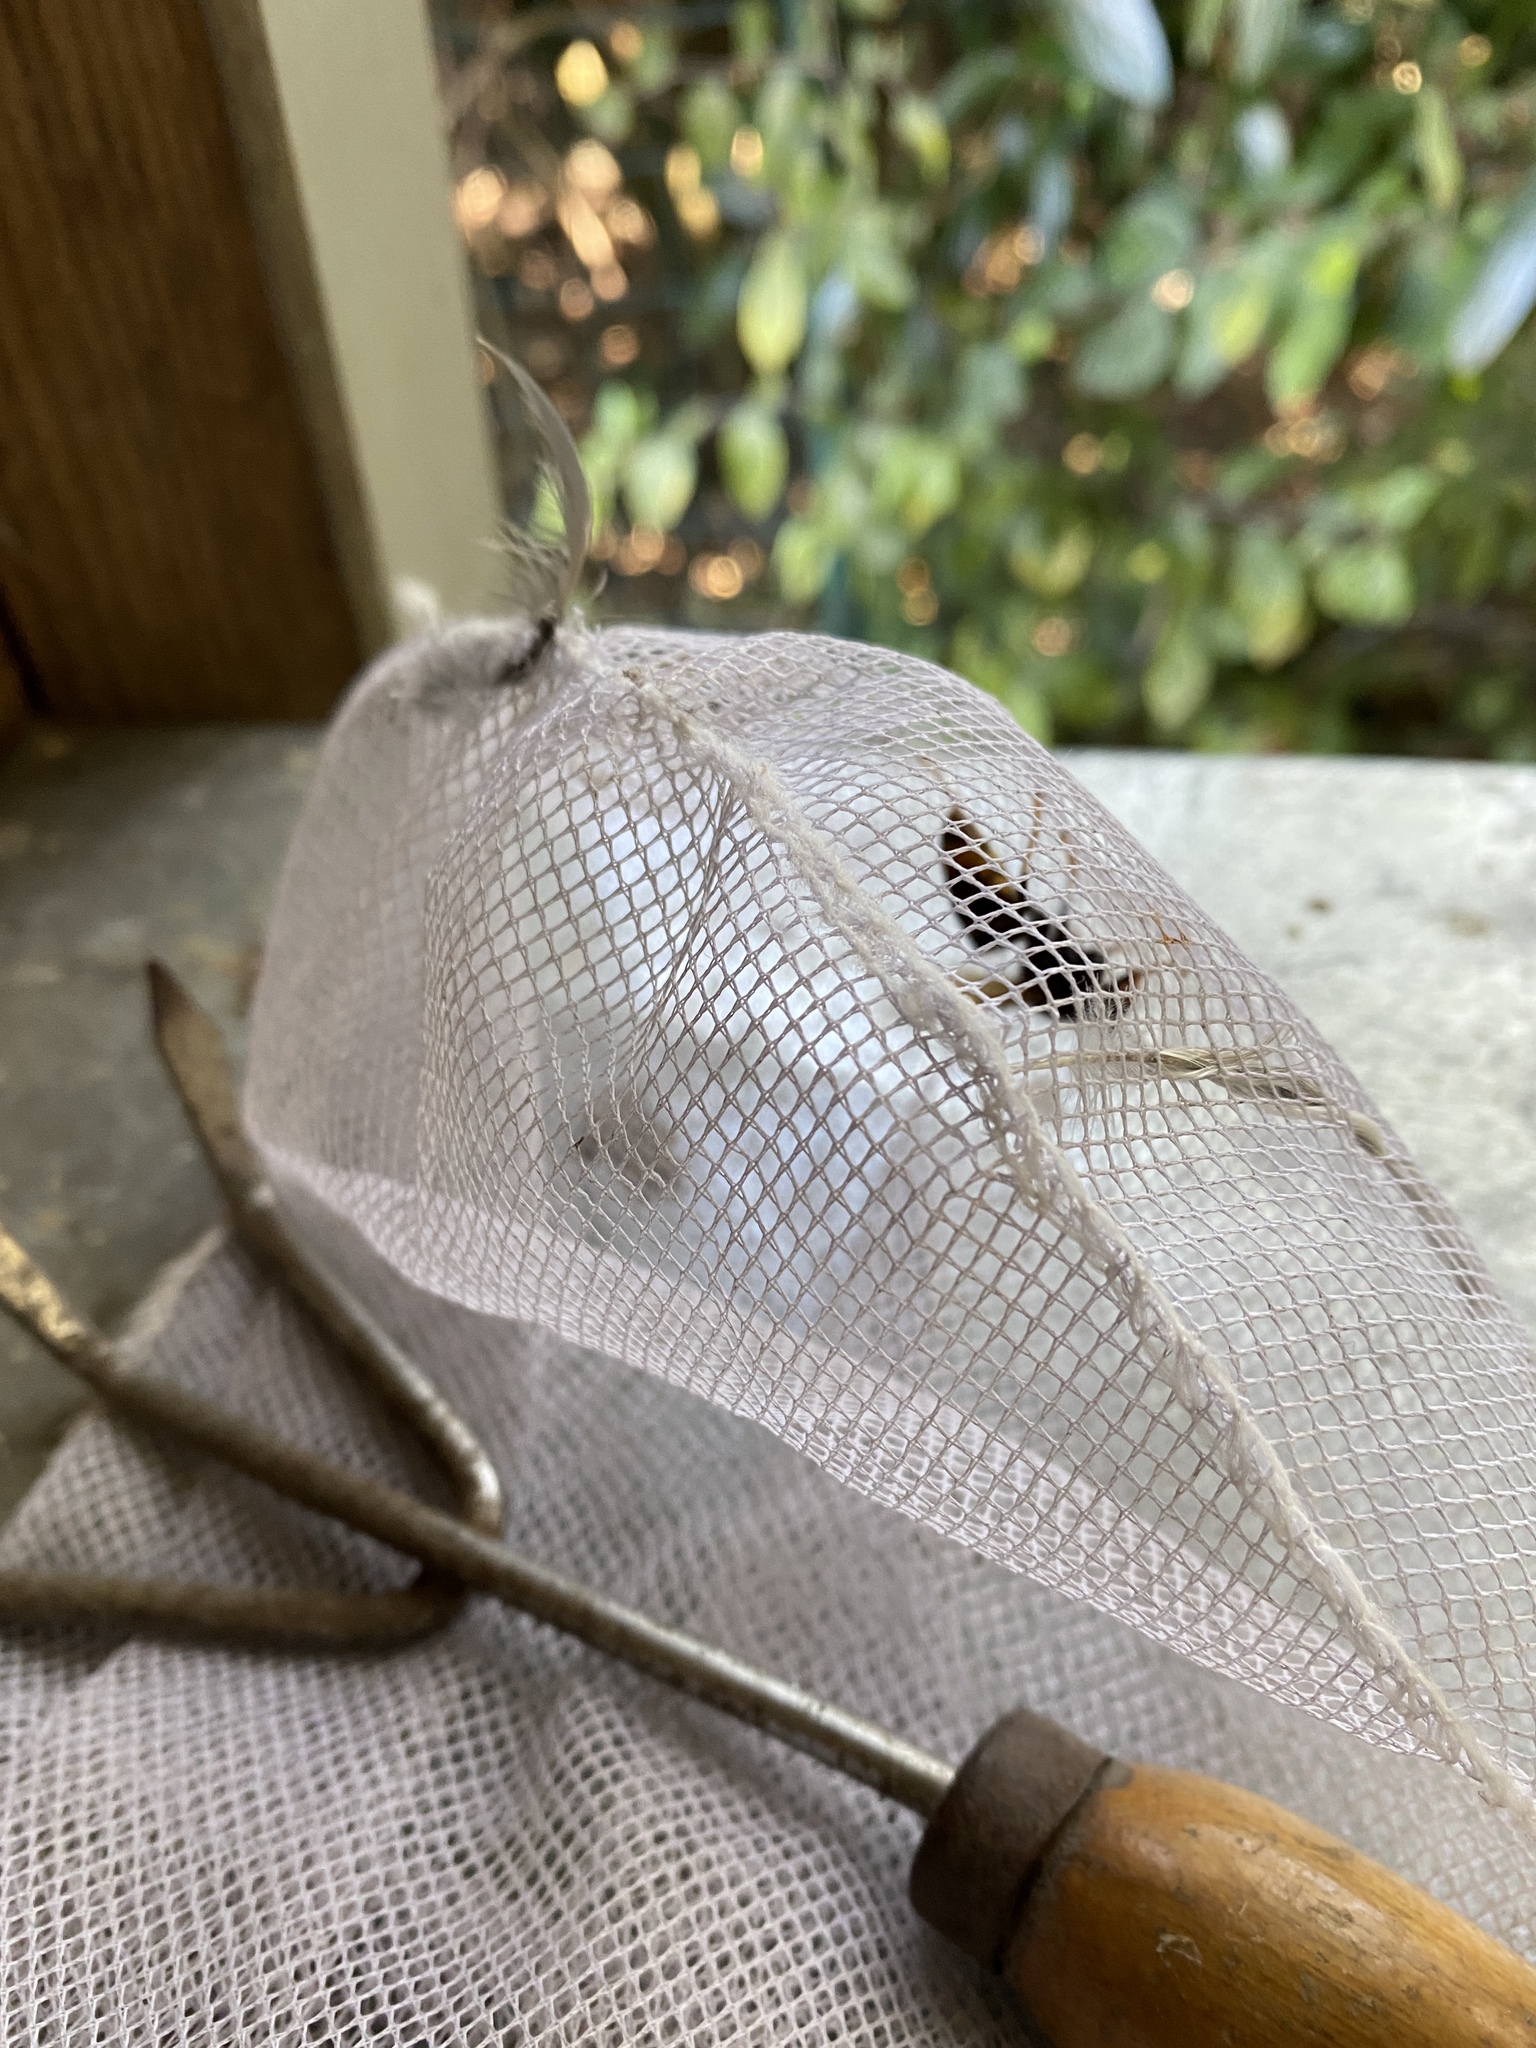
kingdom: Animalia
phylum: Arthropoda
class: Insecta
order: Hymenoptera
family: Vespidae
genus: Vespa
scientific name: Vespa velutina
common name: Asian hornet
